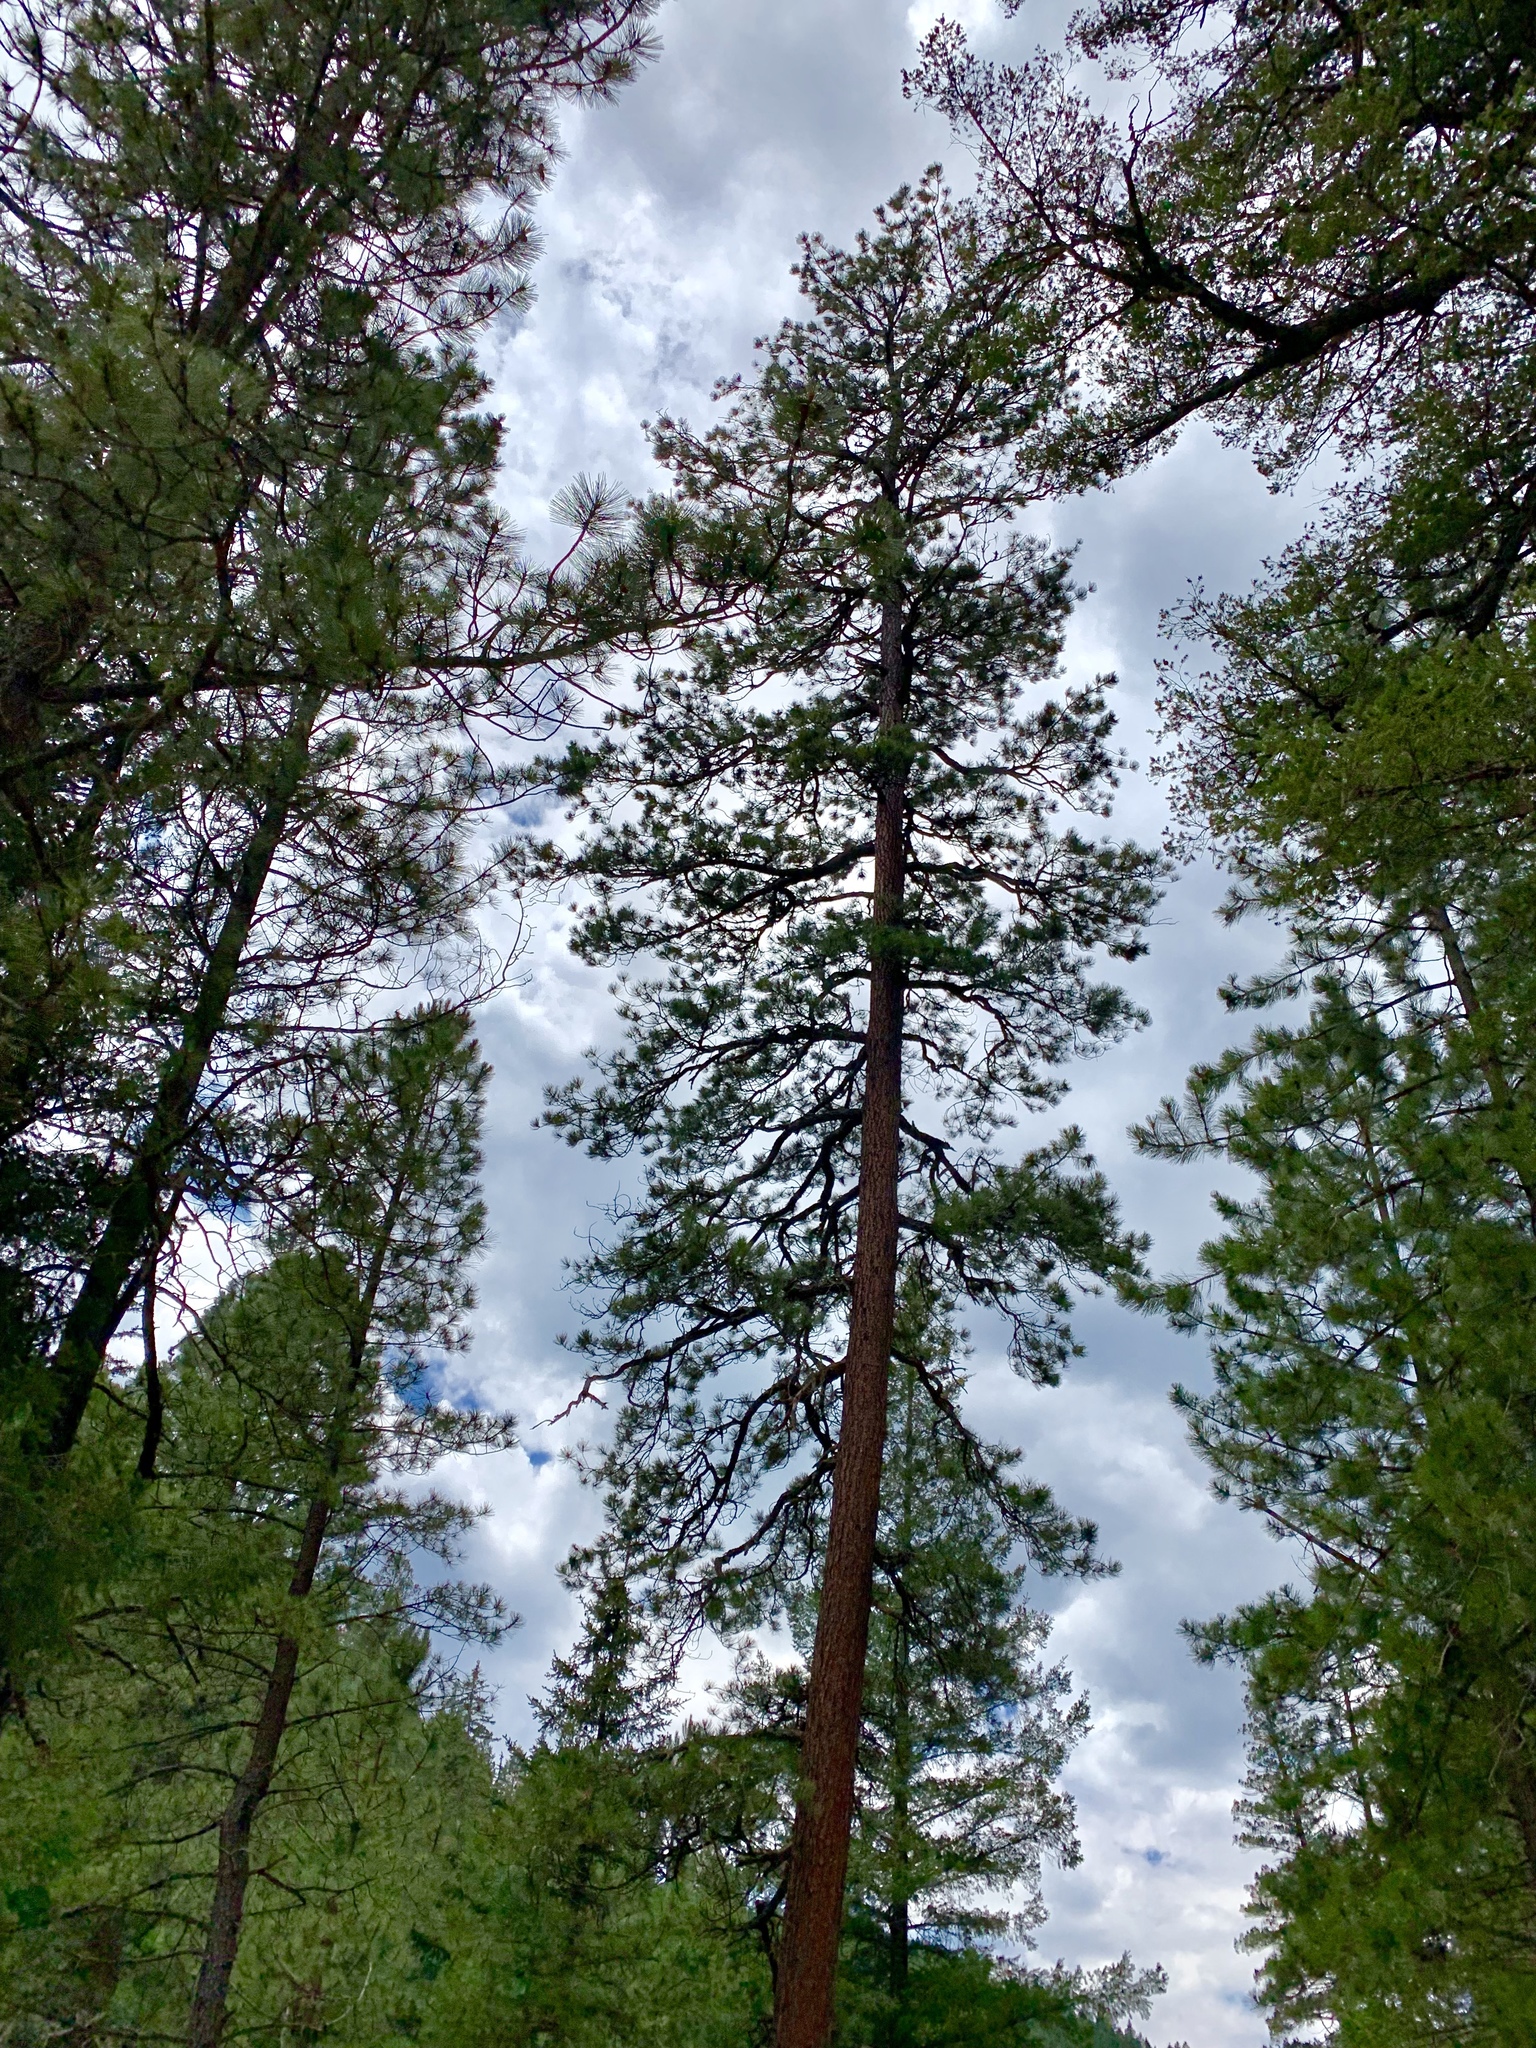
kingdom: Plantae
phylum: Tracheophyta
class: Pinopsida
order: Pinales
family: Pinaceae
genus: Pinus
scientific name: Pinus ponderosa
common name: Western yellow-pine
